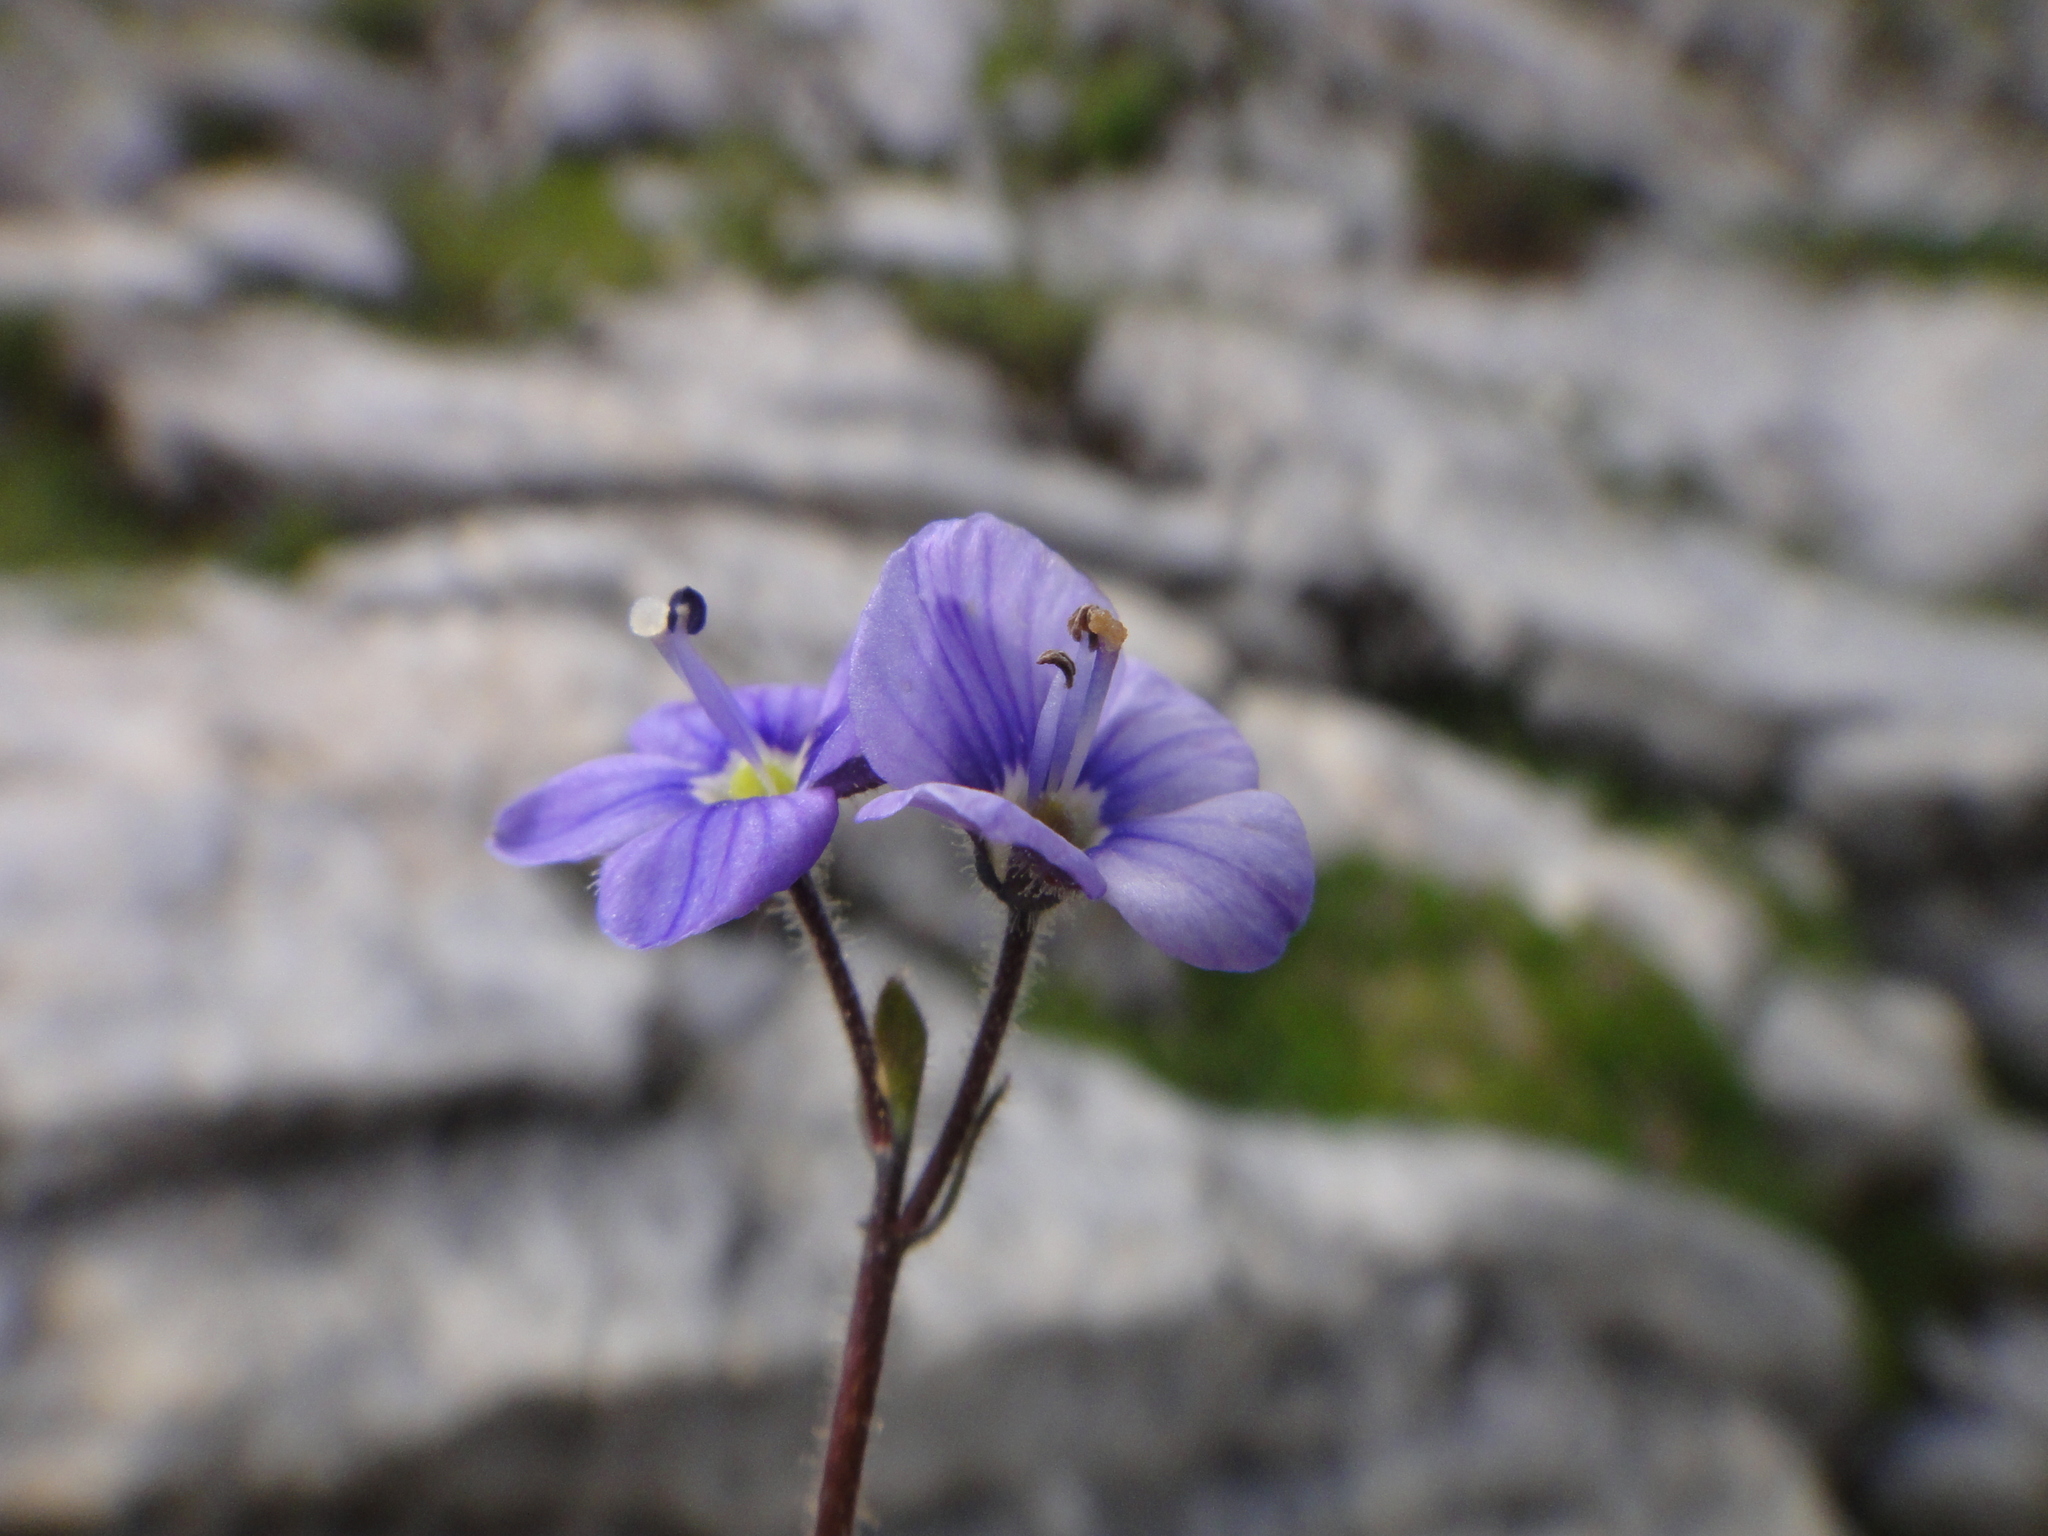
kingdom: Plantae
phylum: Tracheophyta
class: Magnoliopsida
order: Lamiales
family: Plantaginaceae
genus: Veronica
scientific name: Veronica aphylla
